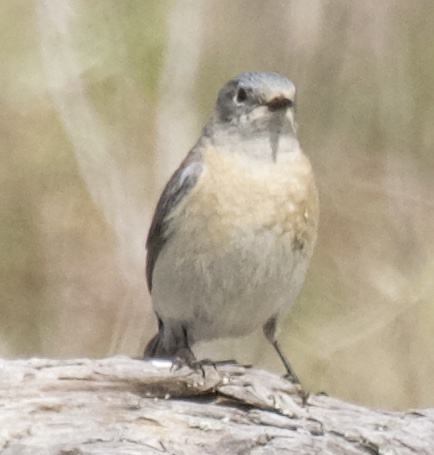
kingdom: Animalia
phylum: Chordata
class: Aves
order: Passeriformes
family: Turdidae
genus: Sialia
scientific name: Sialia mexicana
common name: Western bluebird
